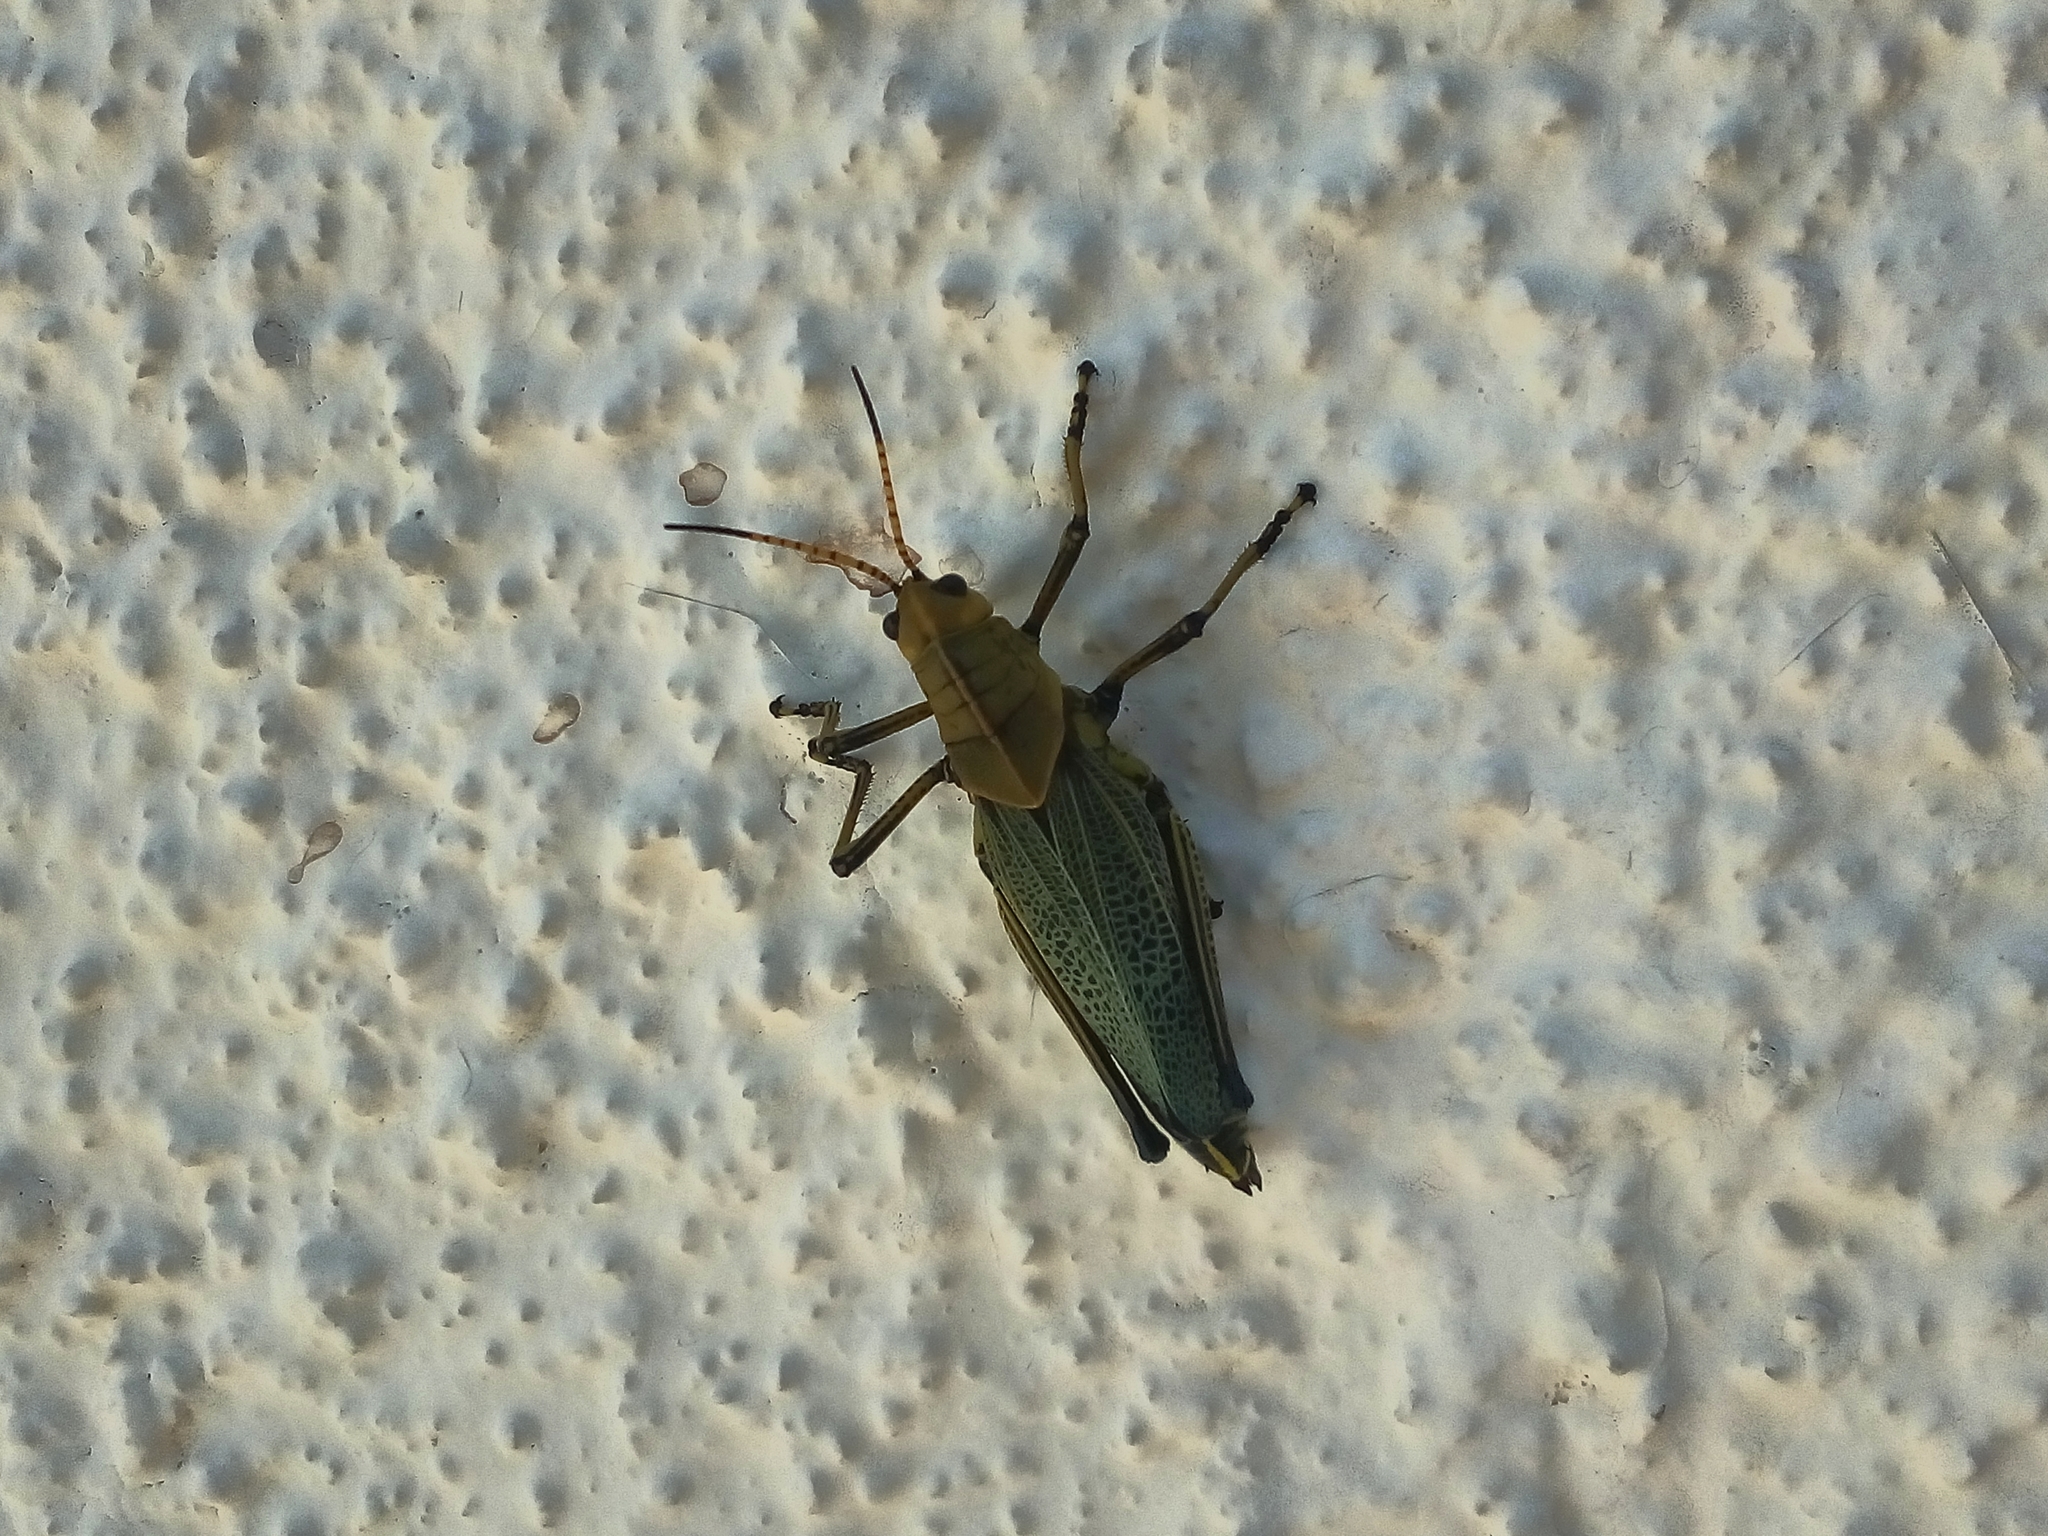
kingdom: Animalia
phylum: Arthropoda
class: Insecta
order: Orthoptera
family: Romaleidae
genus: Romalea
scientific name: Romalea
